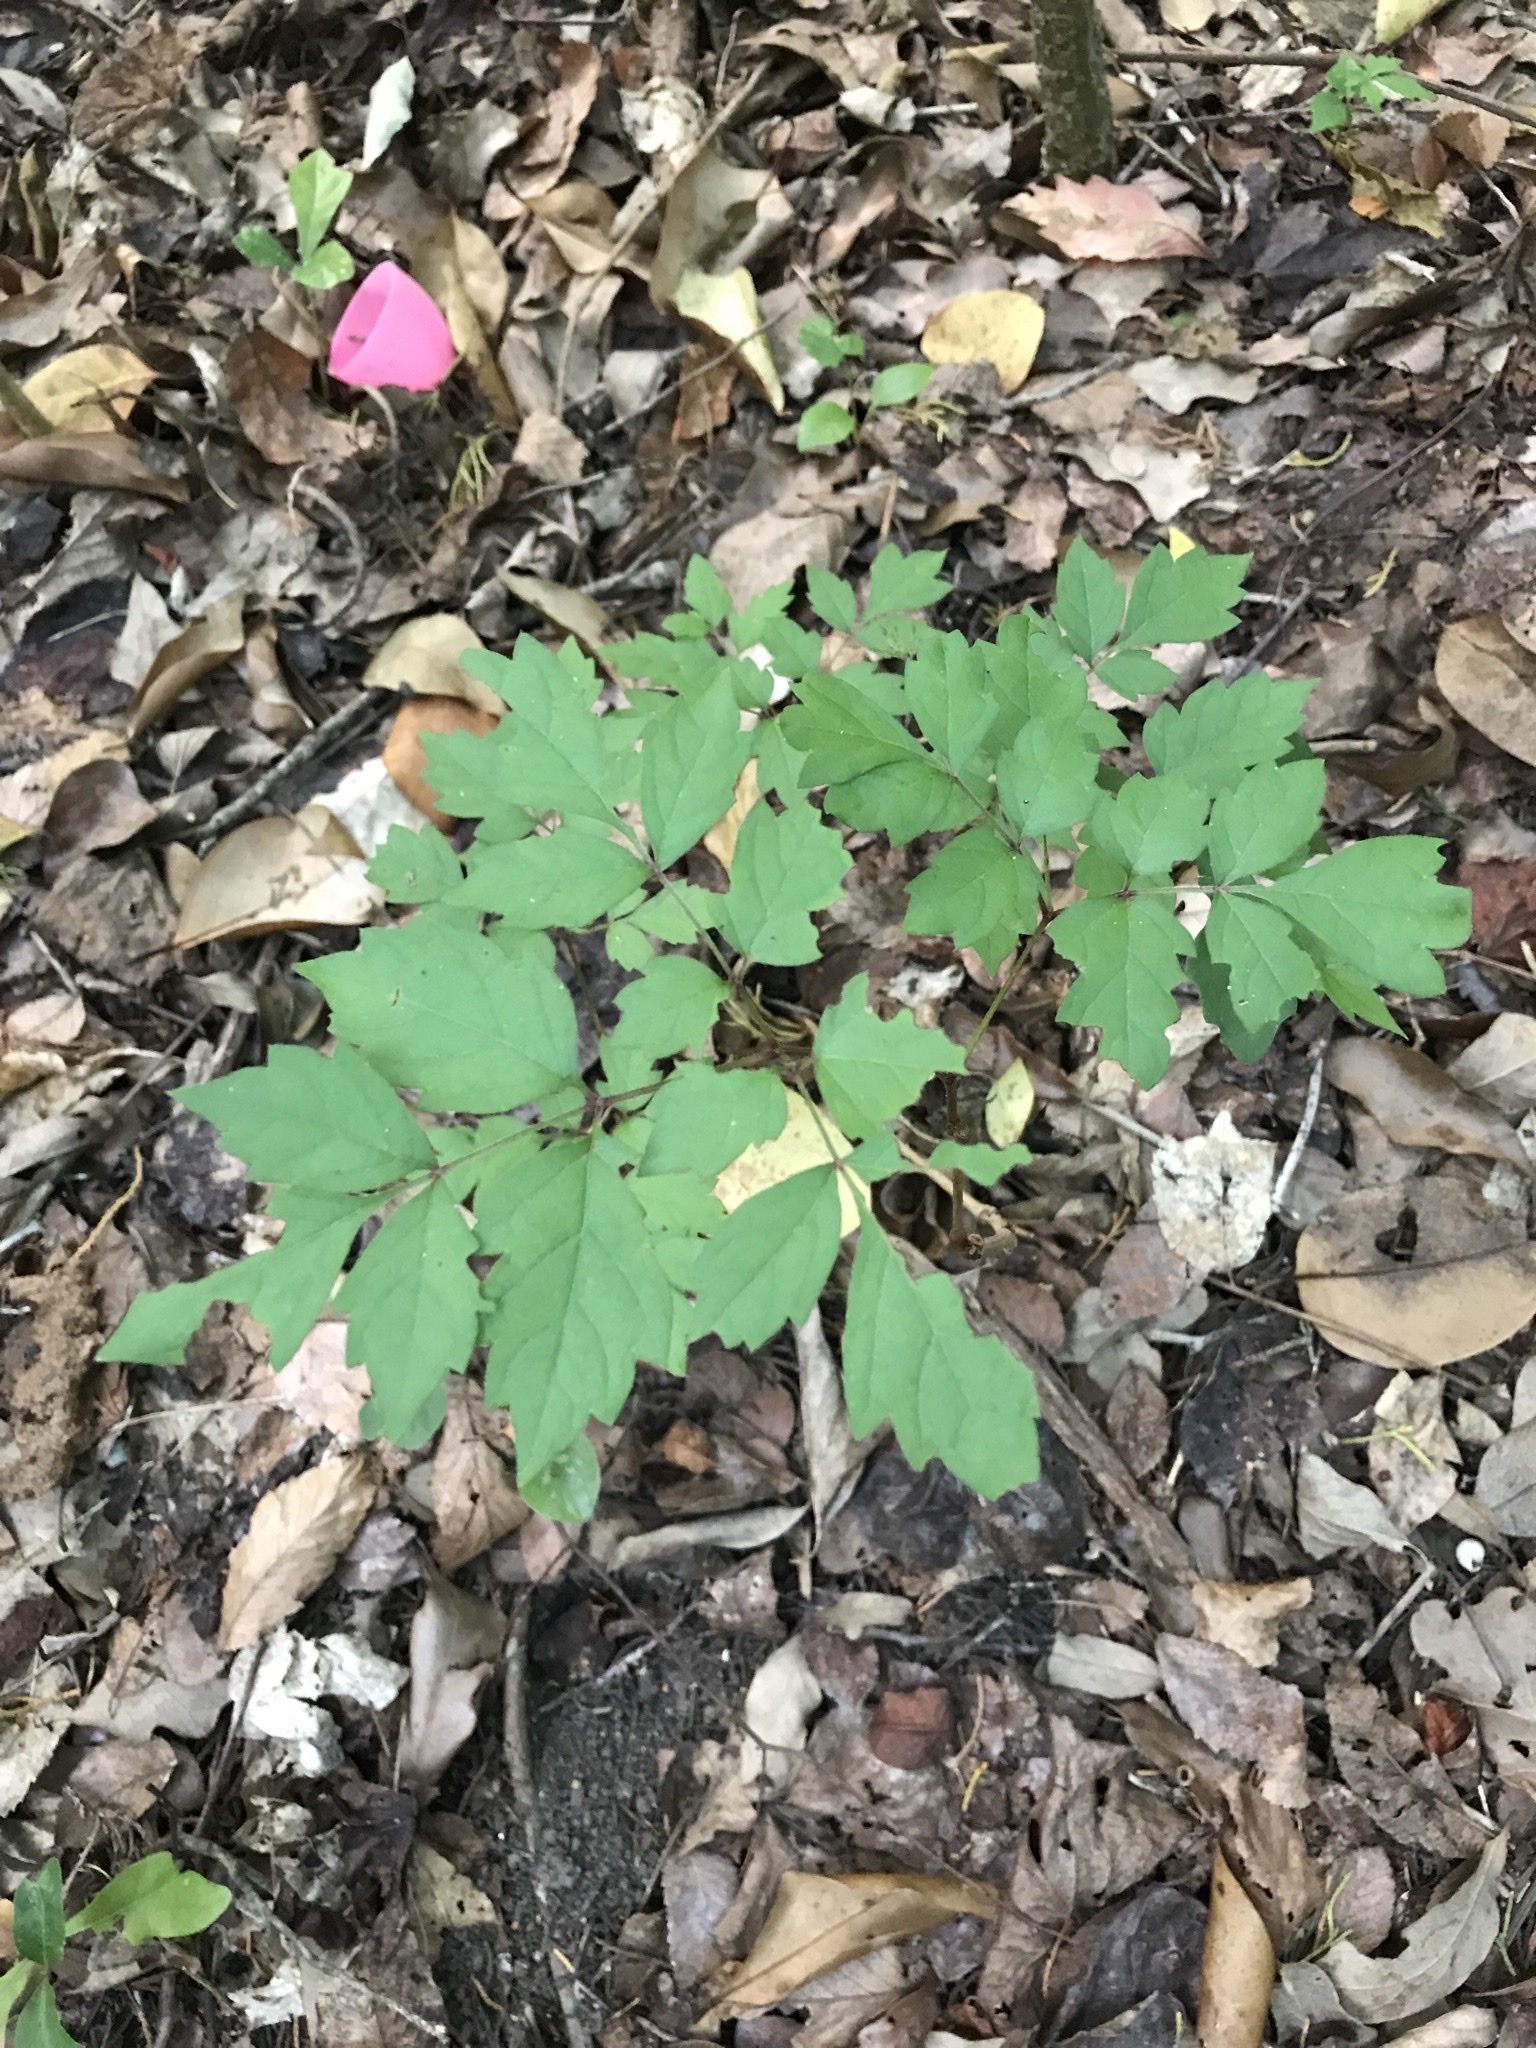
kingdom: Plantae
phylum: Tracheophyta
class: Magnoliopsida
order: Vitales
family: Vitaceae
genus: Nekemias
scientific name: Nekemias arborea
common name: Peppervine
